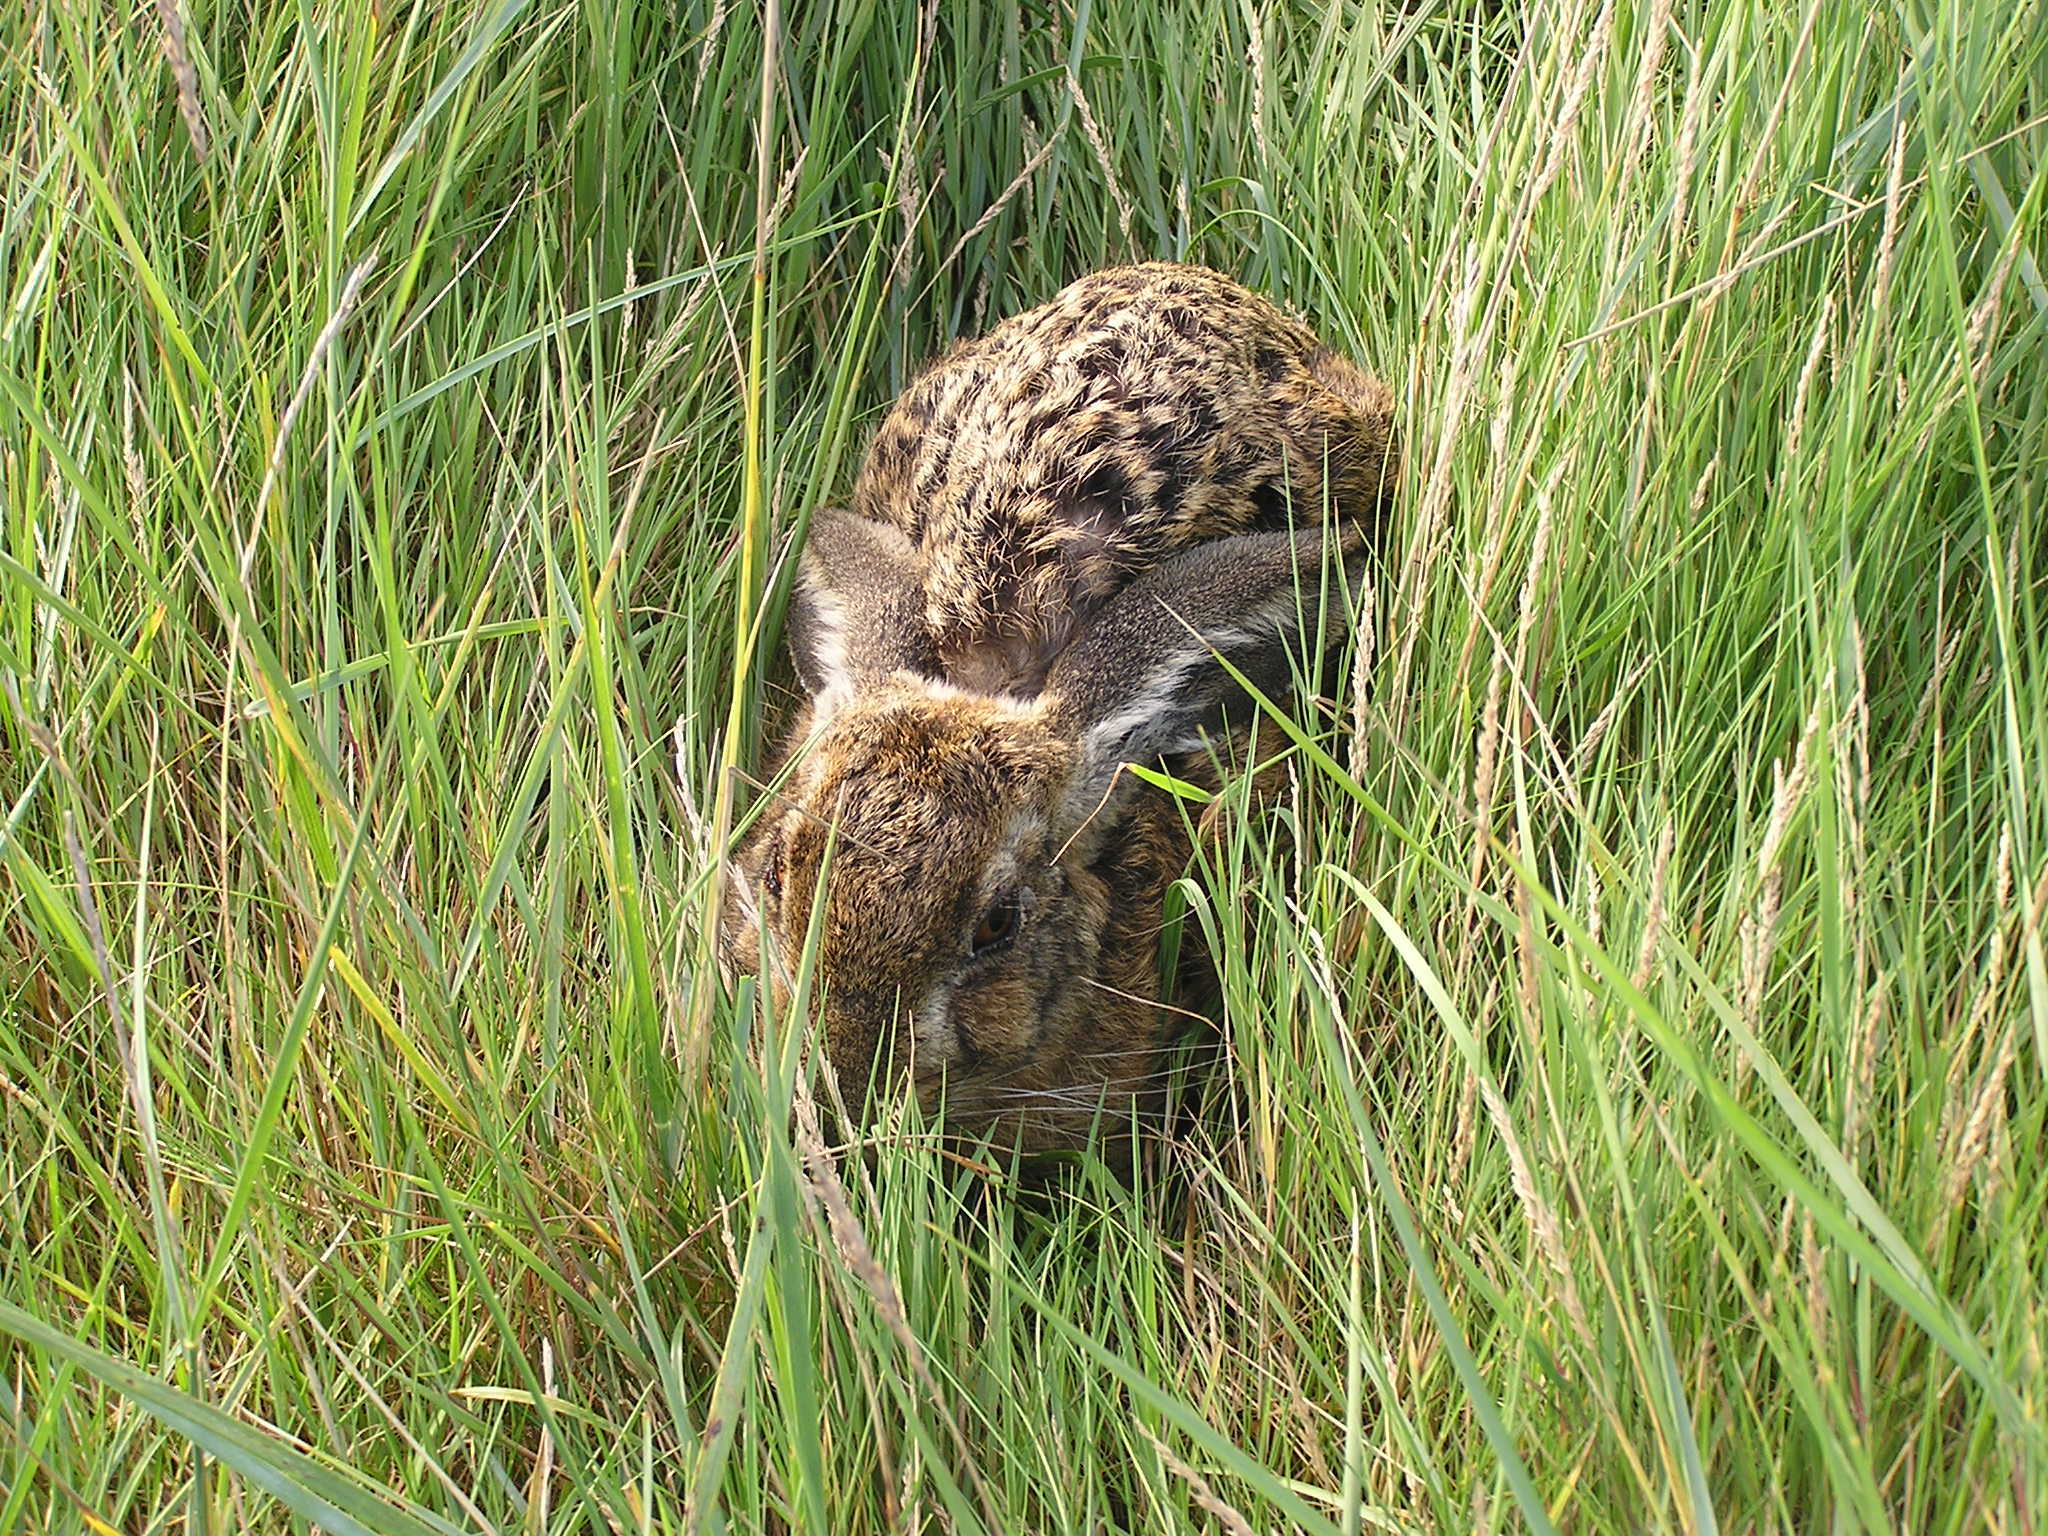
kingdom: Animalia
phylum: Chordata
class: Mammalia
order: Lagomorpha
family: Leporidae
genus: Lepus
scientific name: Lepus europaeus
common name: European hare
